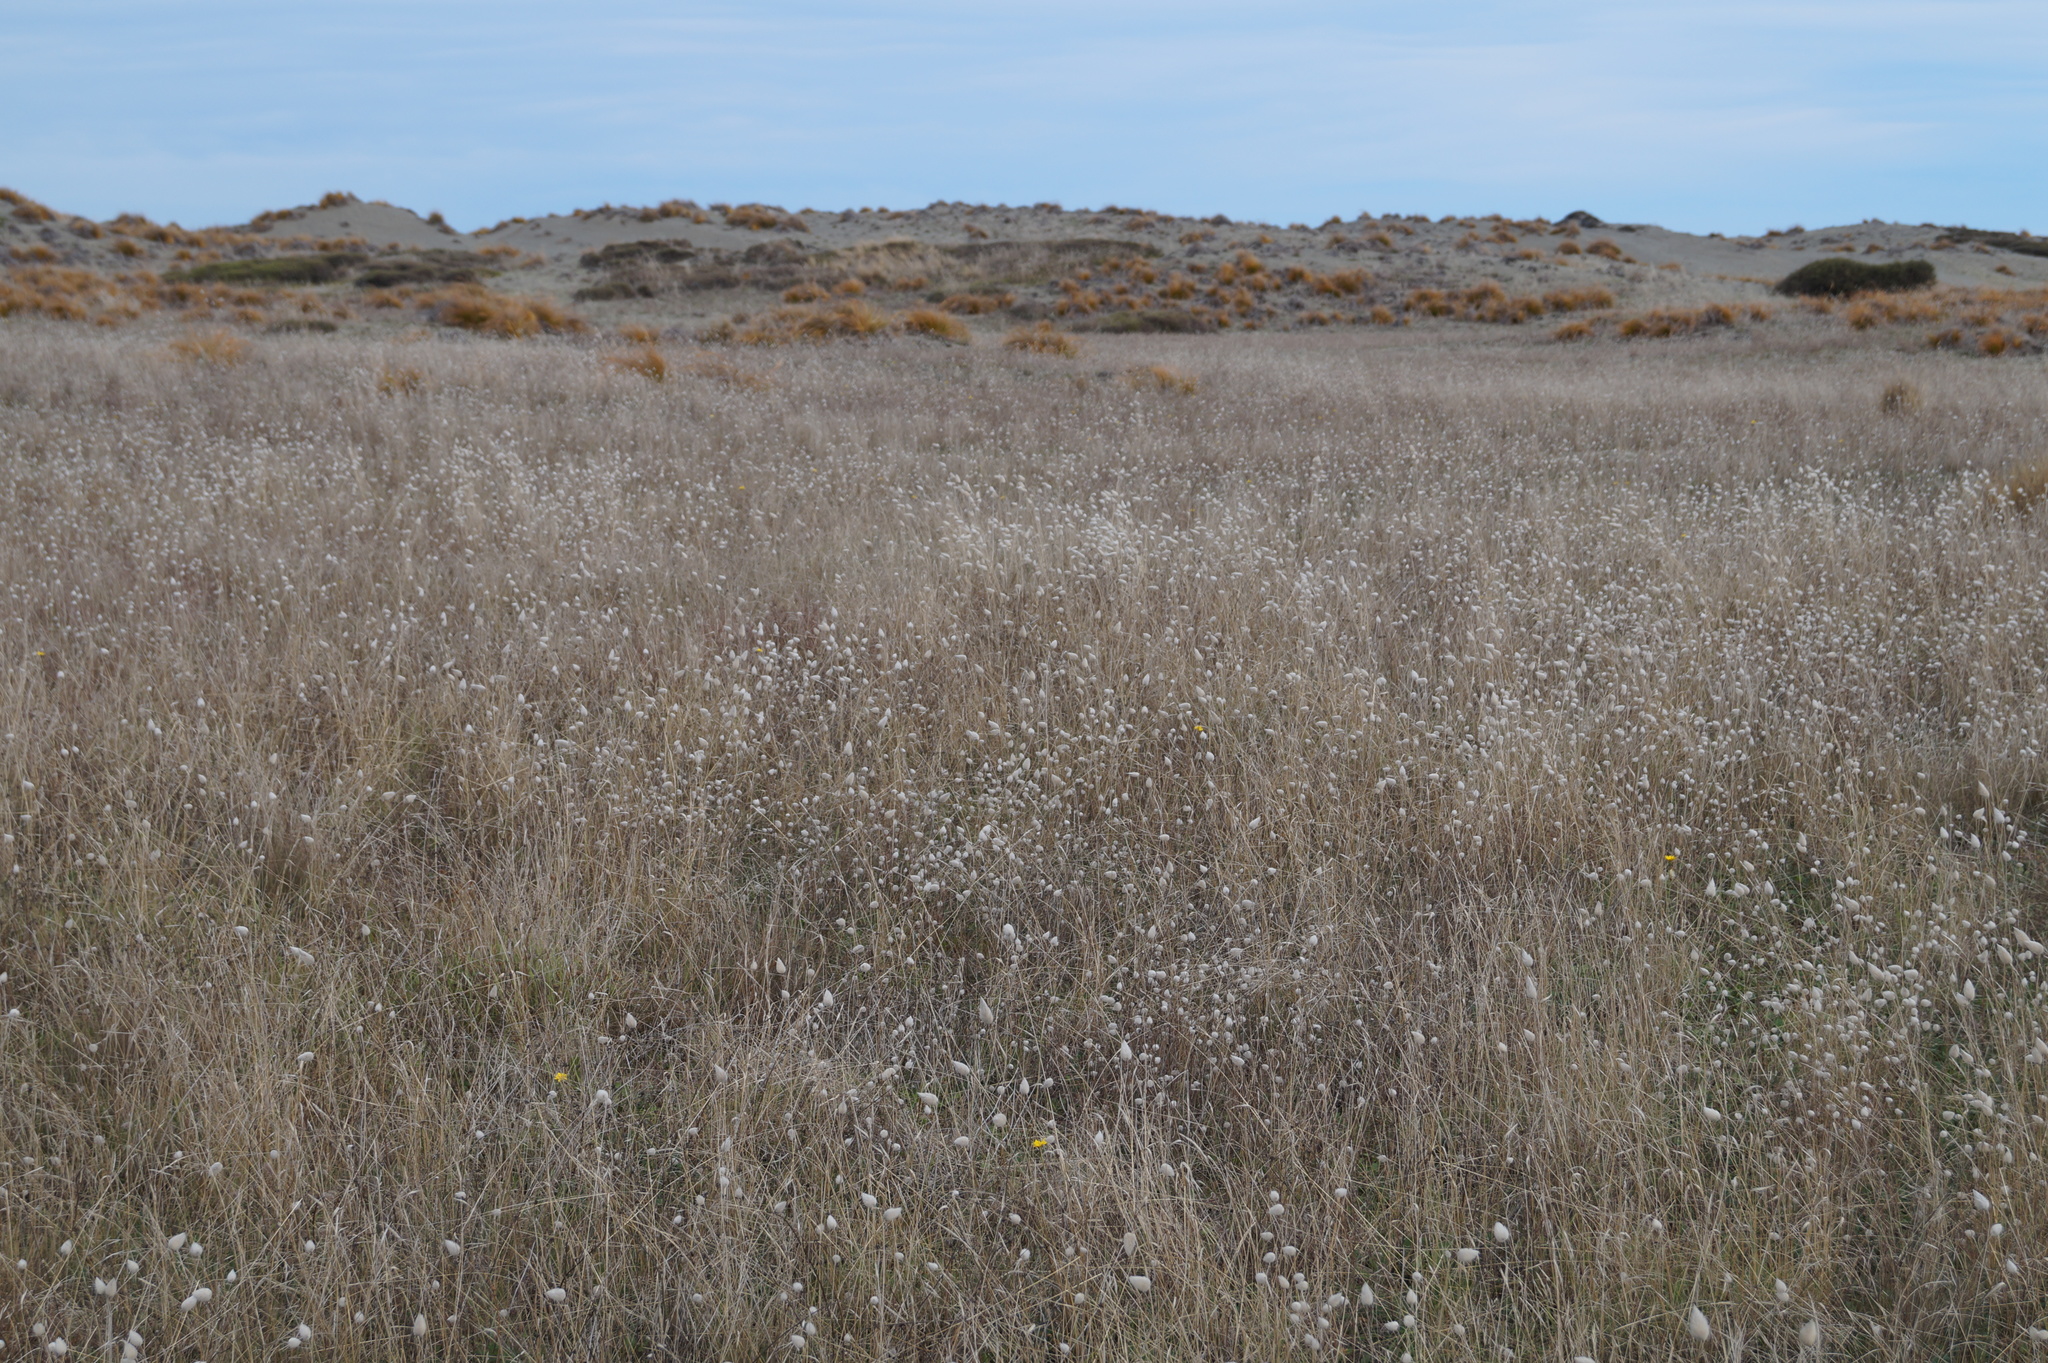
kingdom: Plantae
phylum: Tracheophyta
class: Magnoliopsida
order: Fabales
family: Fabaceae
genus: Trifolium
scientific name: Trifolium arvense
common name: Hare's-foot clover
